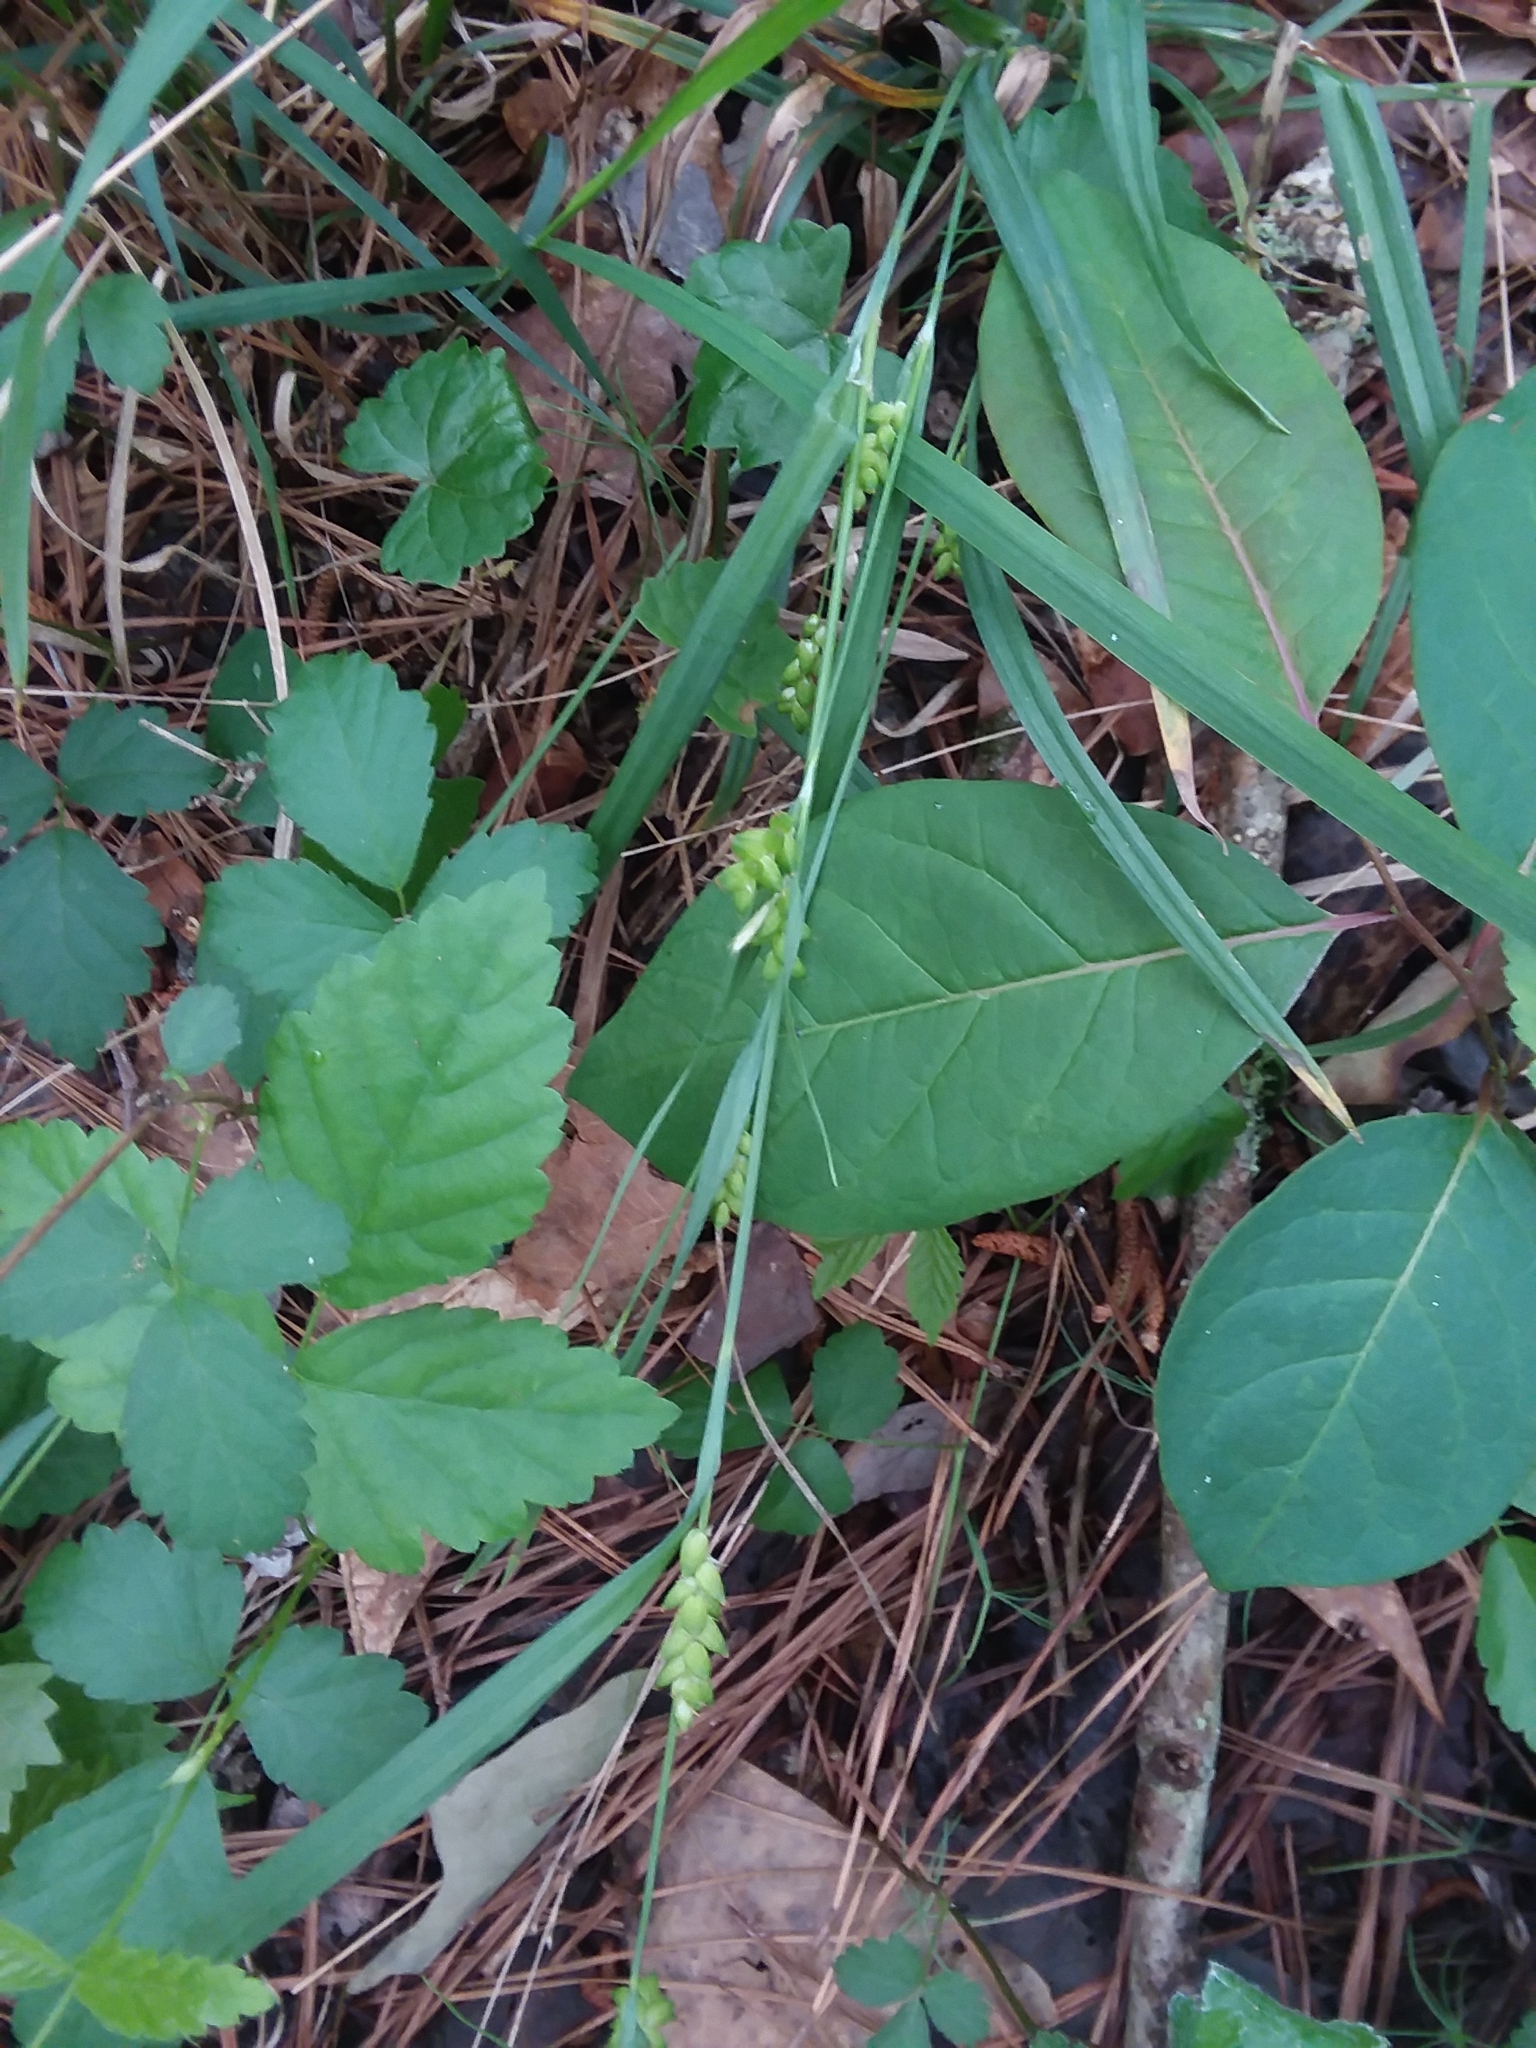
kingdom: Plantae
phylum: Tracheophyta
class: Liliopsida
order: Poales
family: Cyperaceae
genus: Carex
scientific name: Carex flaccosperma
